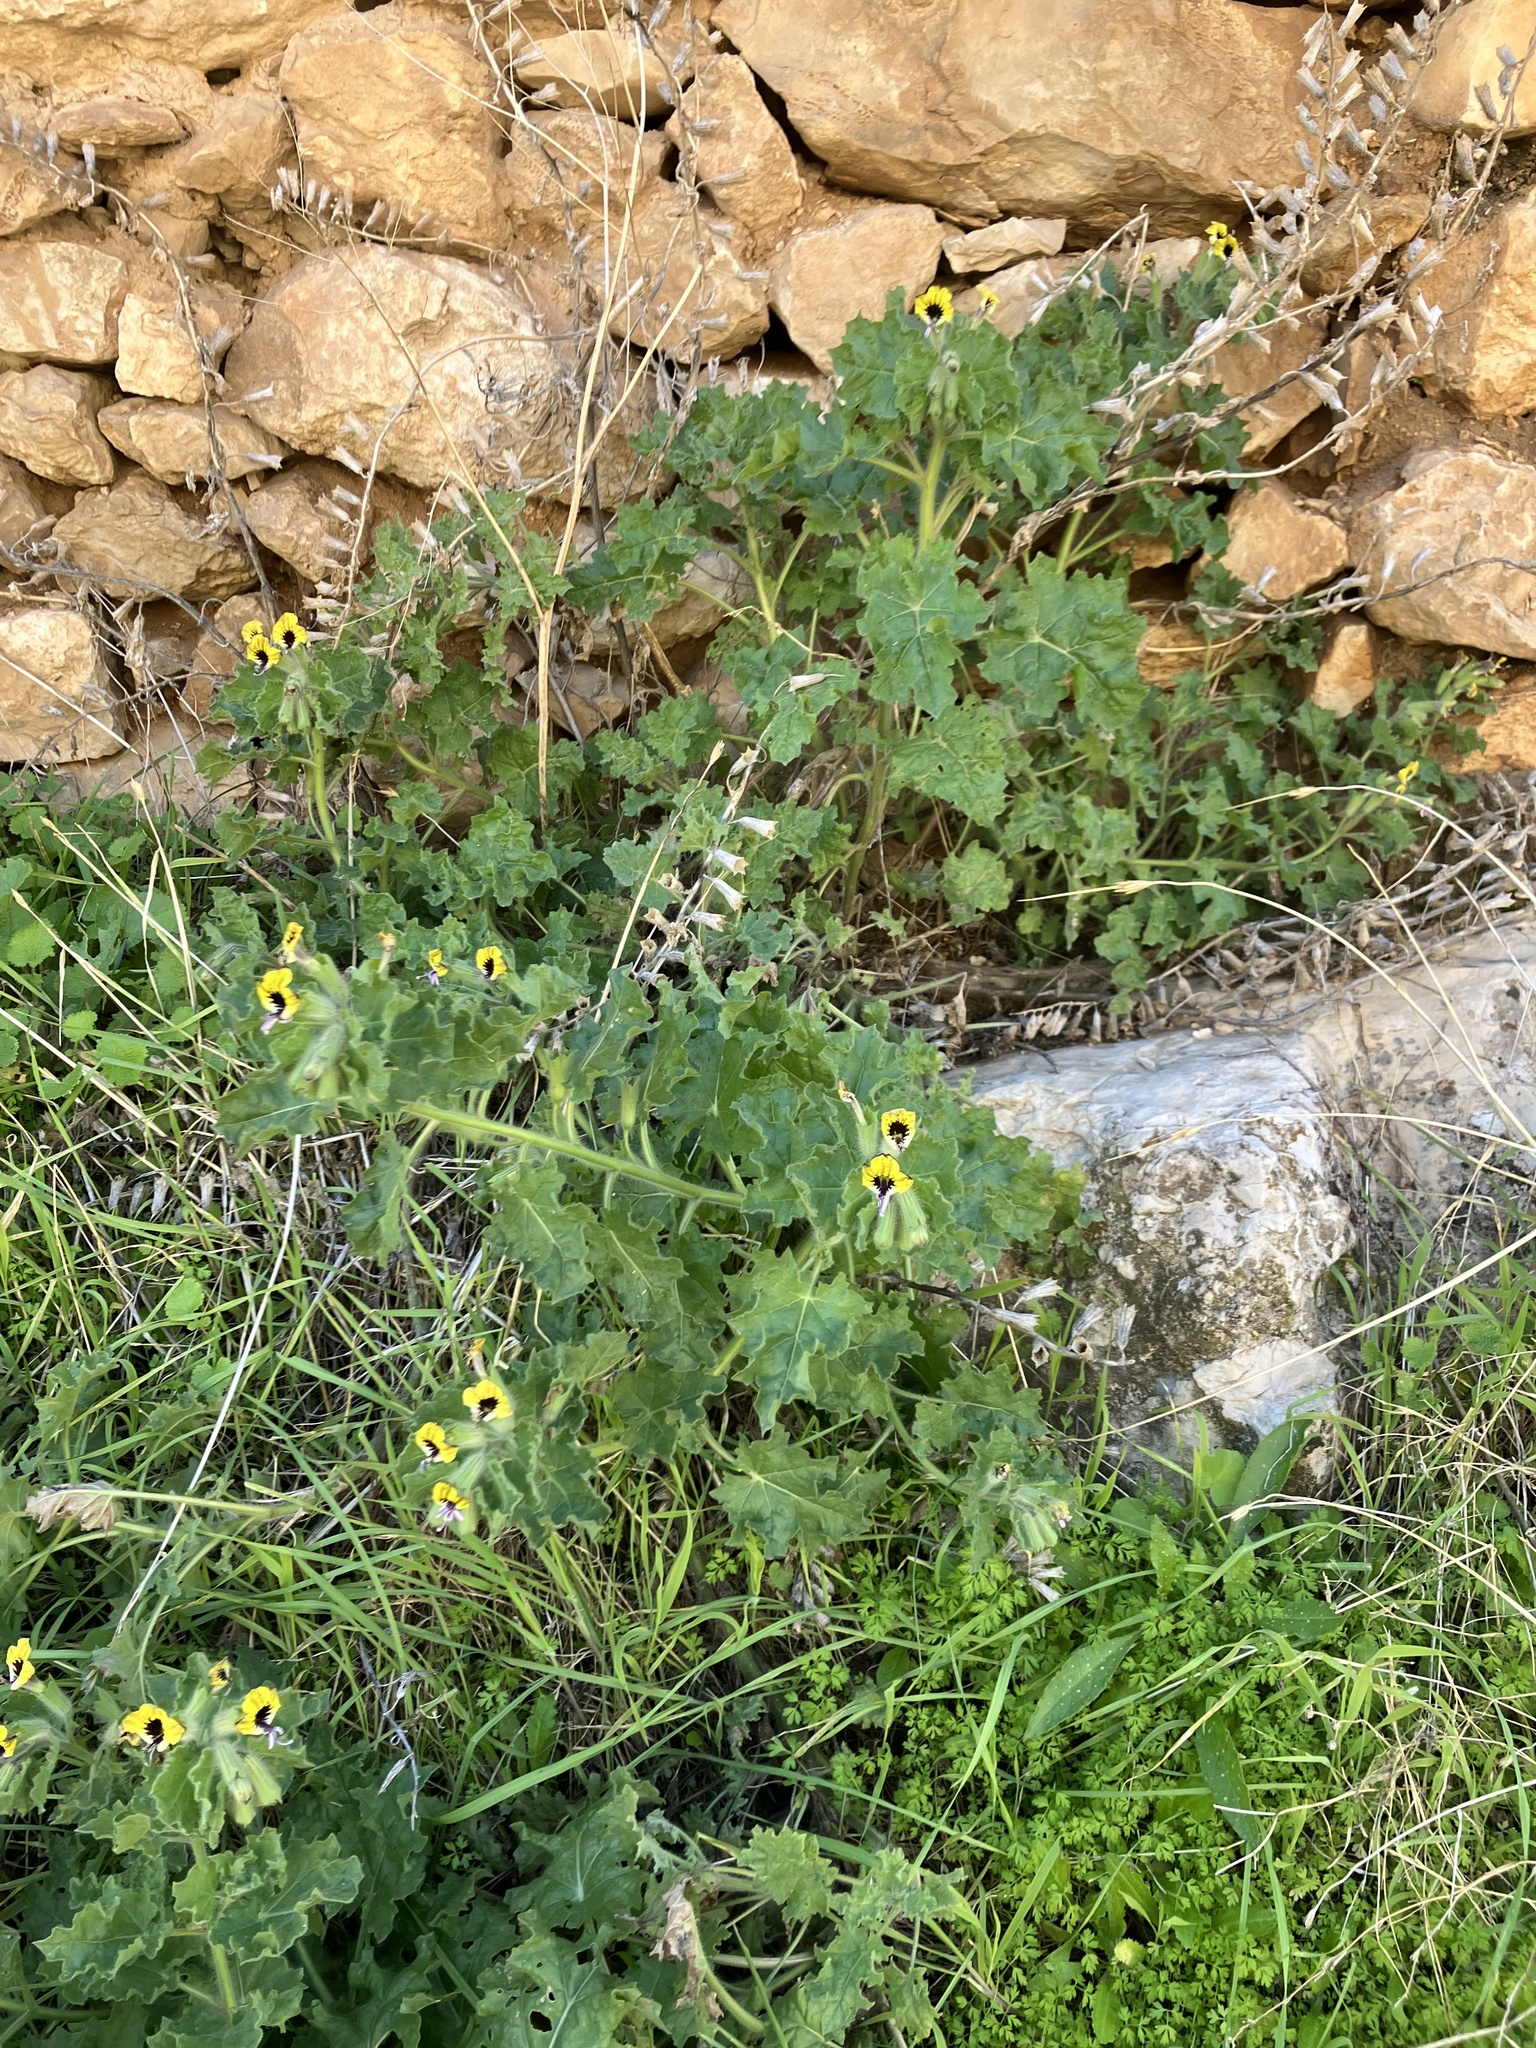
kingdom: Plantae
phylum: Tracheophyta
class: Magnoliopsida
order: Solanales
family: Solanaceae
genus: Hyoscyamus
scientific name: Hyoscyamus aureus
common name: Golden henbane
